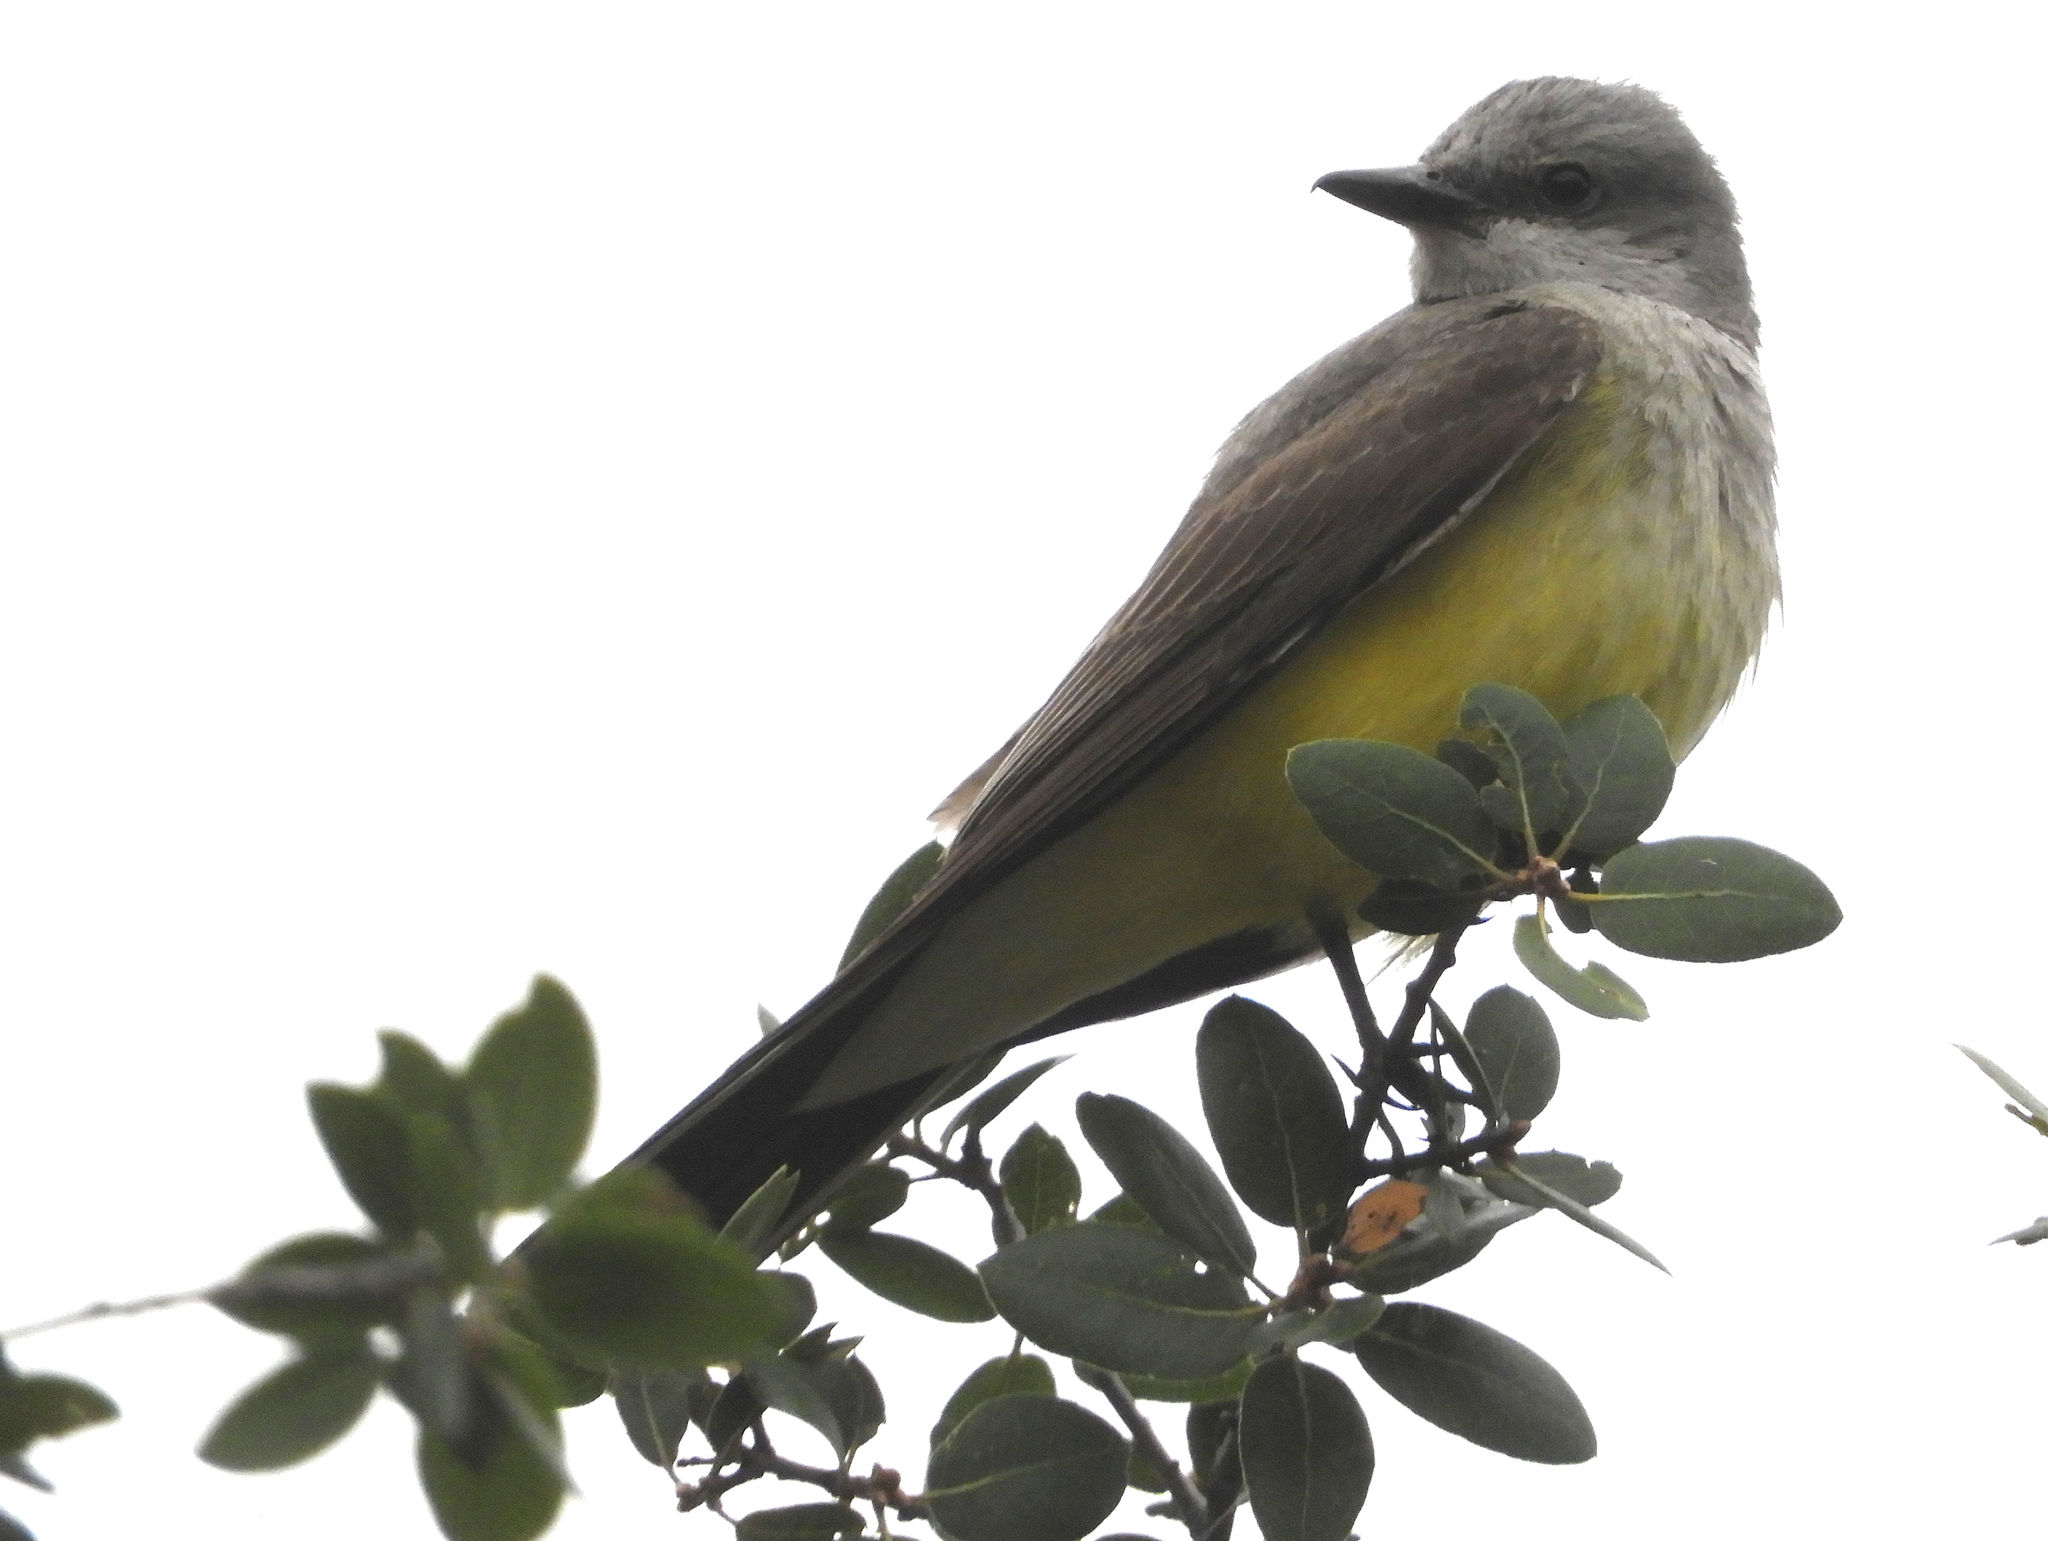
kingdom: Animalia
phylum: Chordata
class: Aves
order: Passeriformes
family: Tyrannidae
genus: Tyrannus
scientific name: Tyrannus vociferans
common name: Cassin's kingbird
